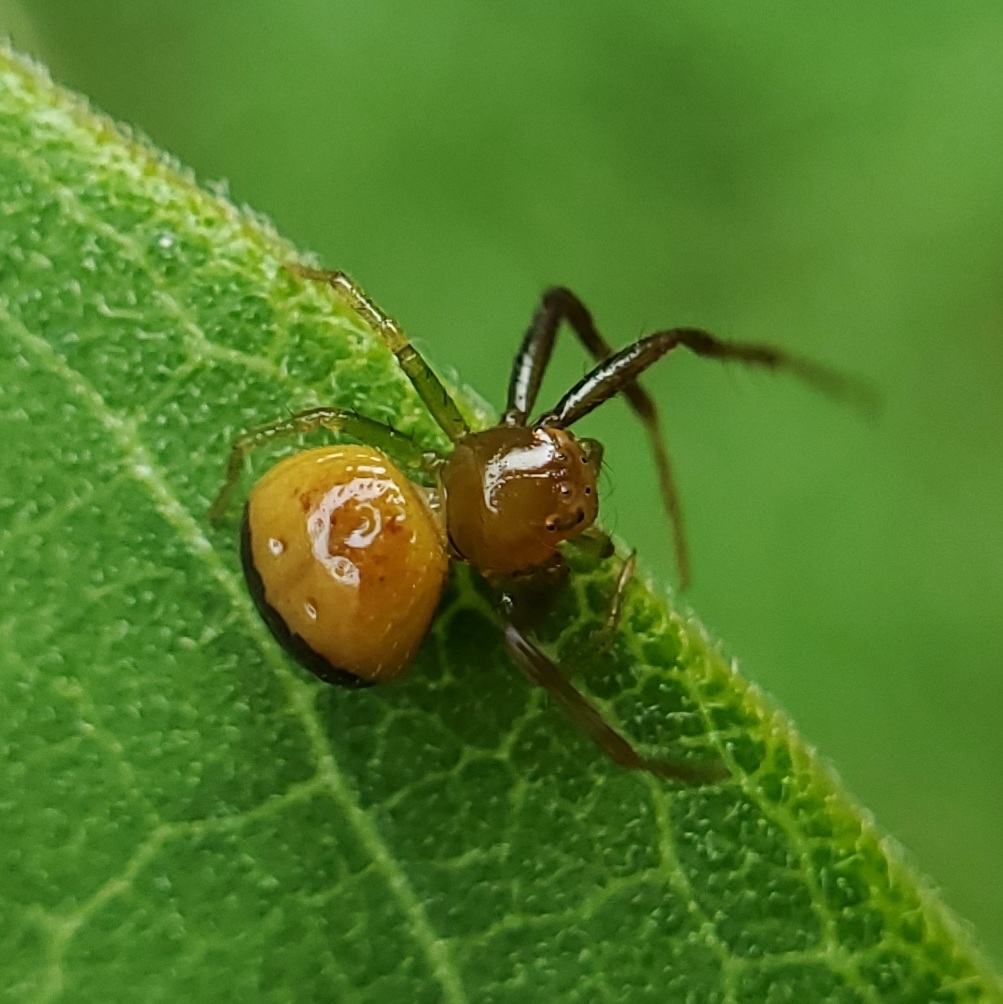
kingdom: Animalia
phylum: Arthropoda
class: Arachnida
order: Araneae
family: Thomisidae
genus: Synema
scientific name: Synema parvulum
